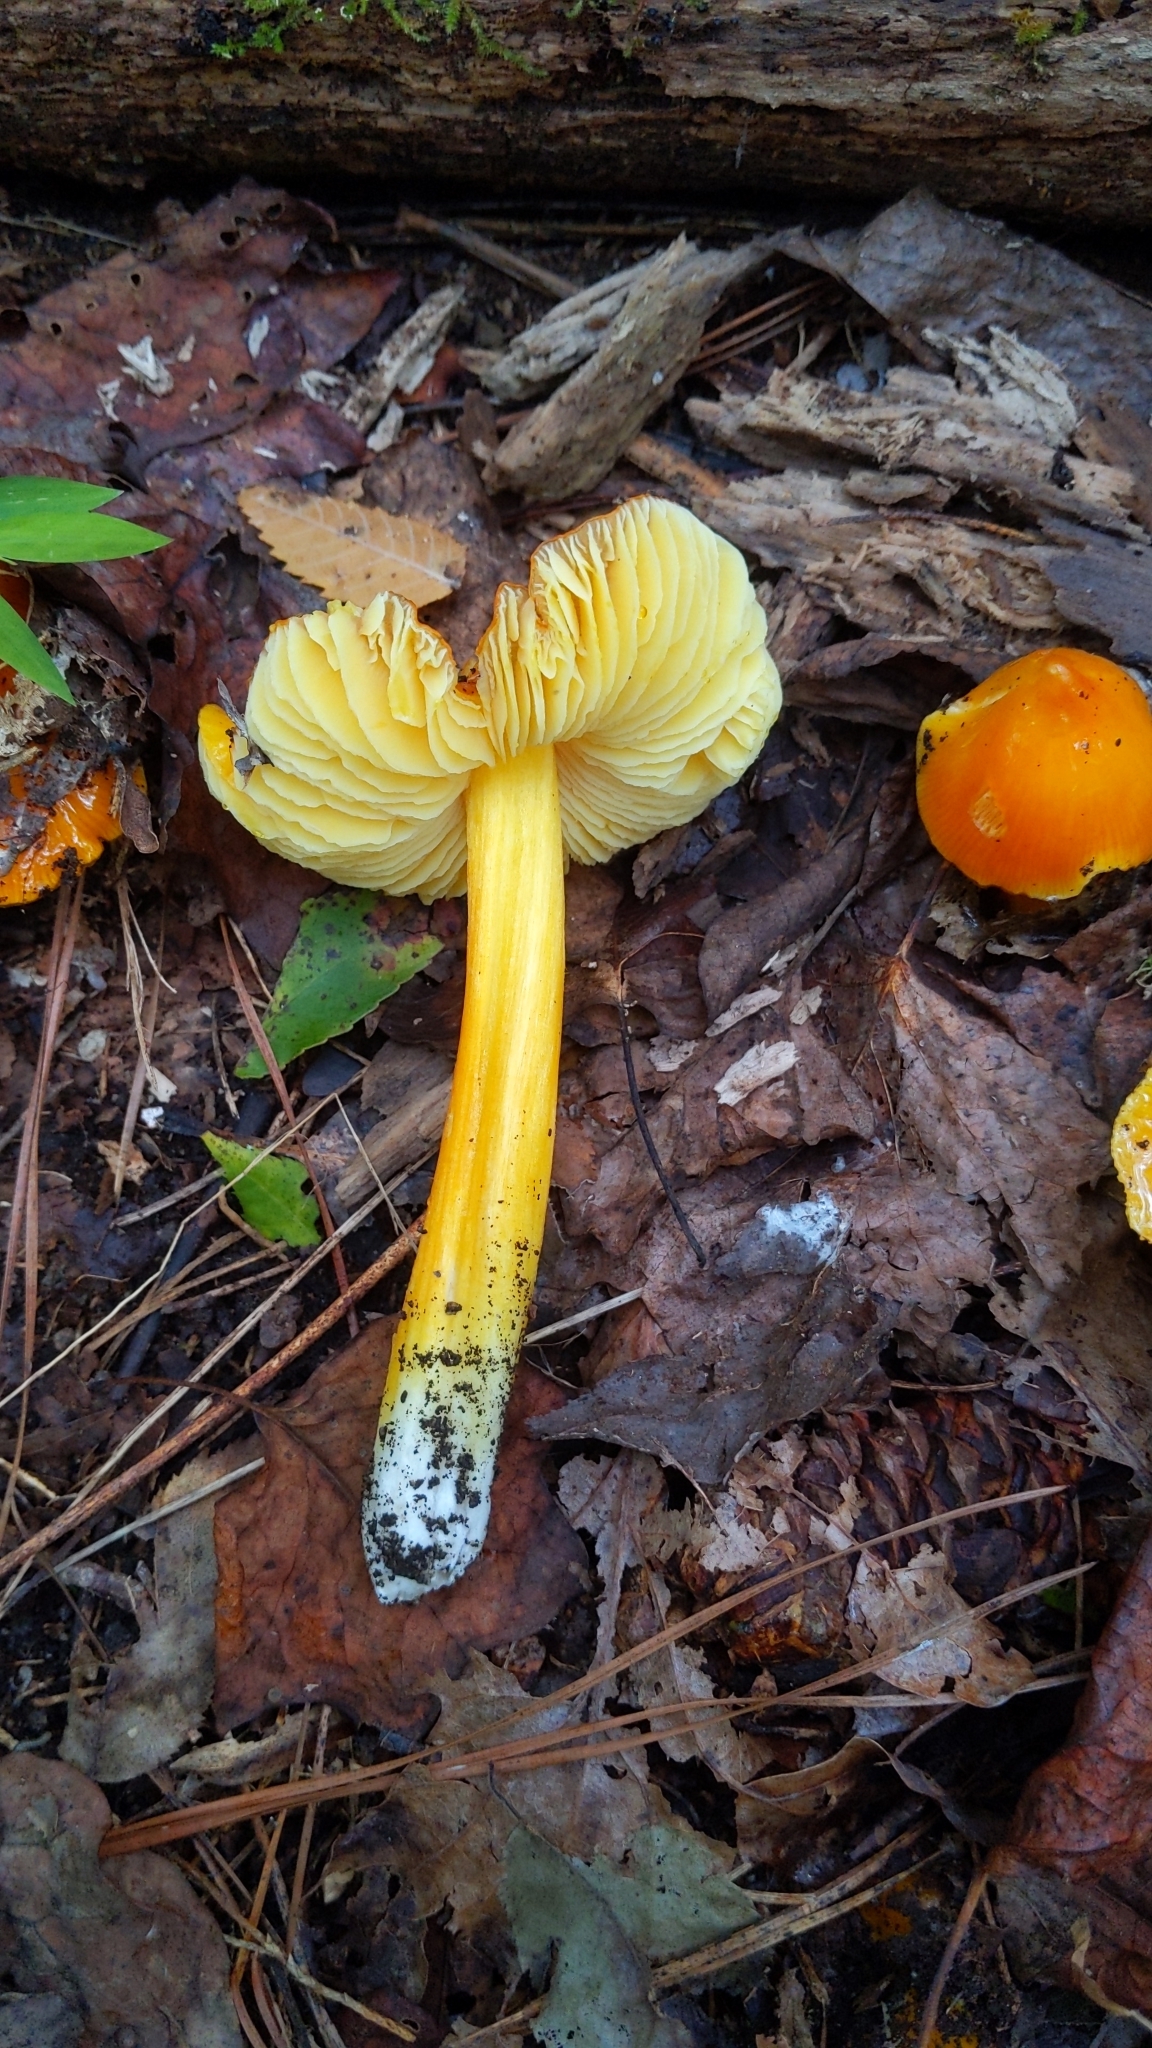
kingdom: Fungi
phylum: Basidiomycota
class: Agaricomycetes
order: Agaricales
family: Hygrophoraceae
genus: Hygrocybe
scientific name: Hygrocybe flavescens
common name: Golden waxy cap
